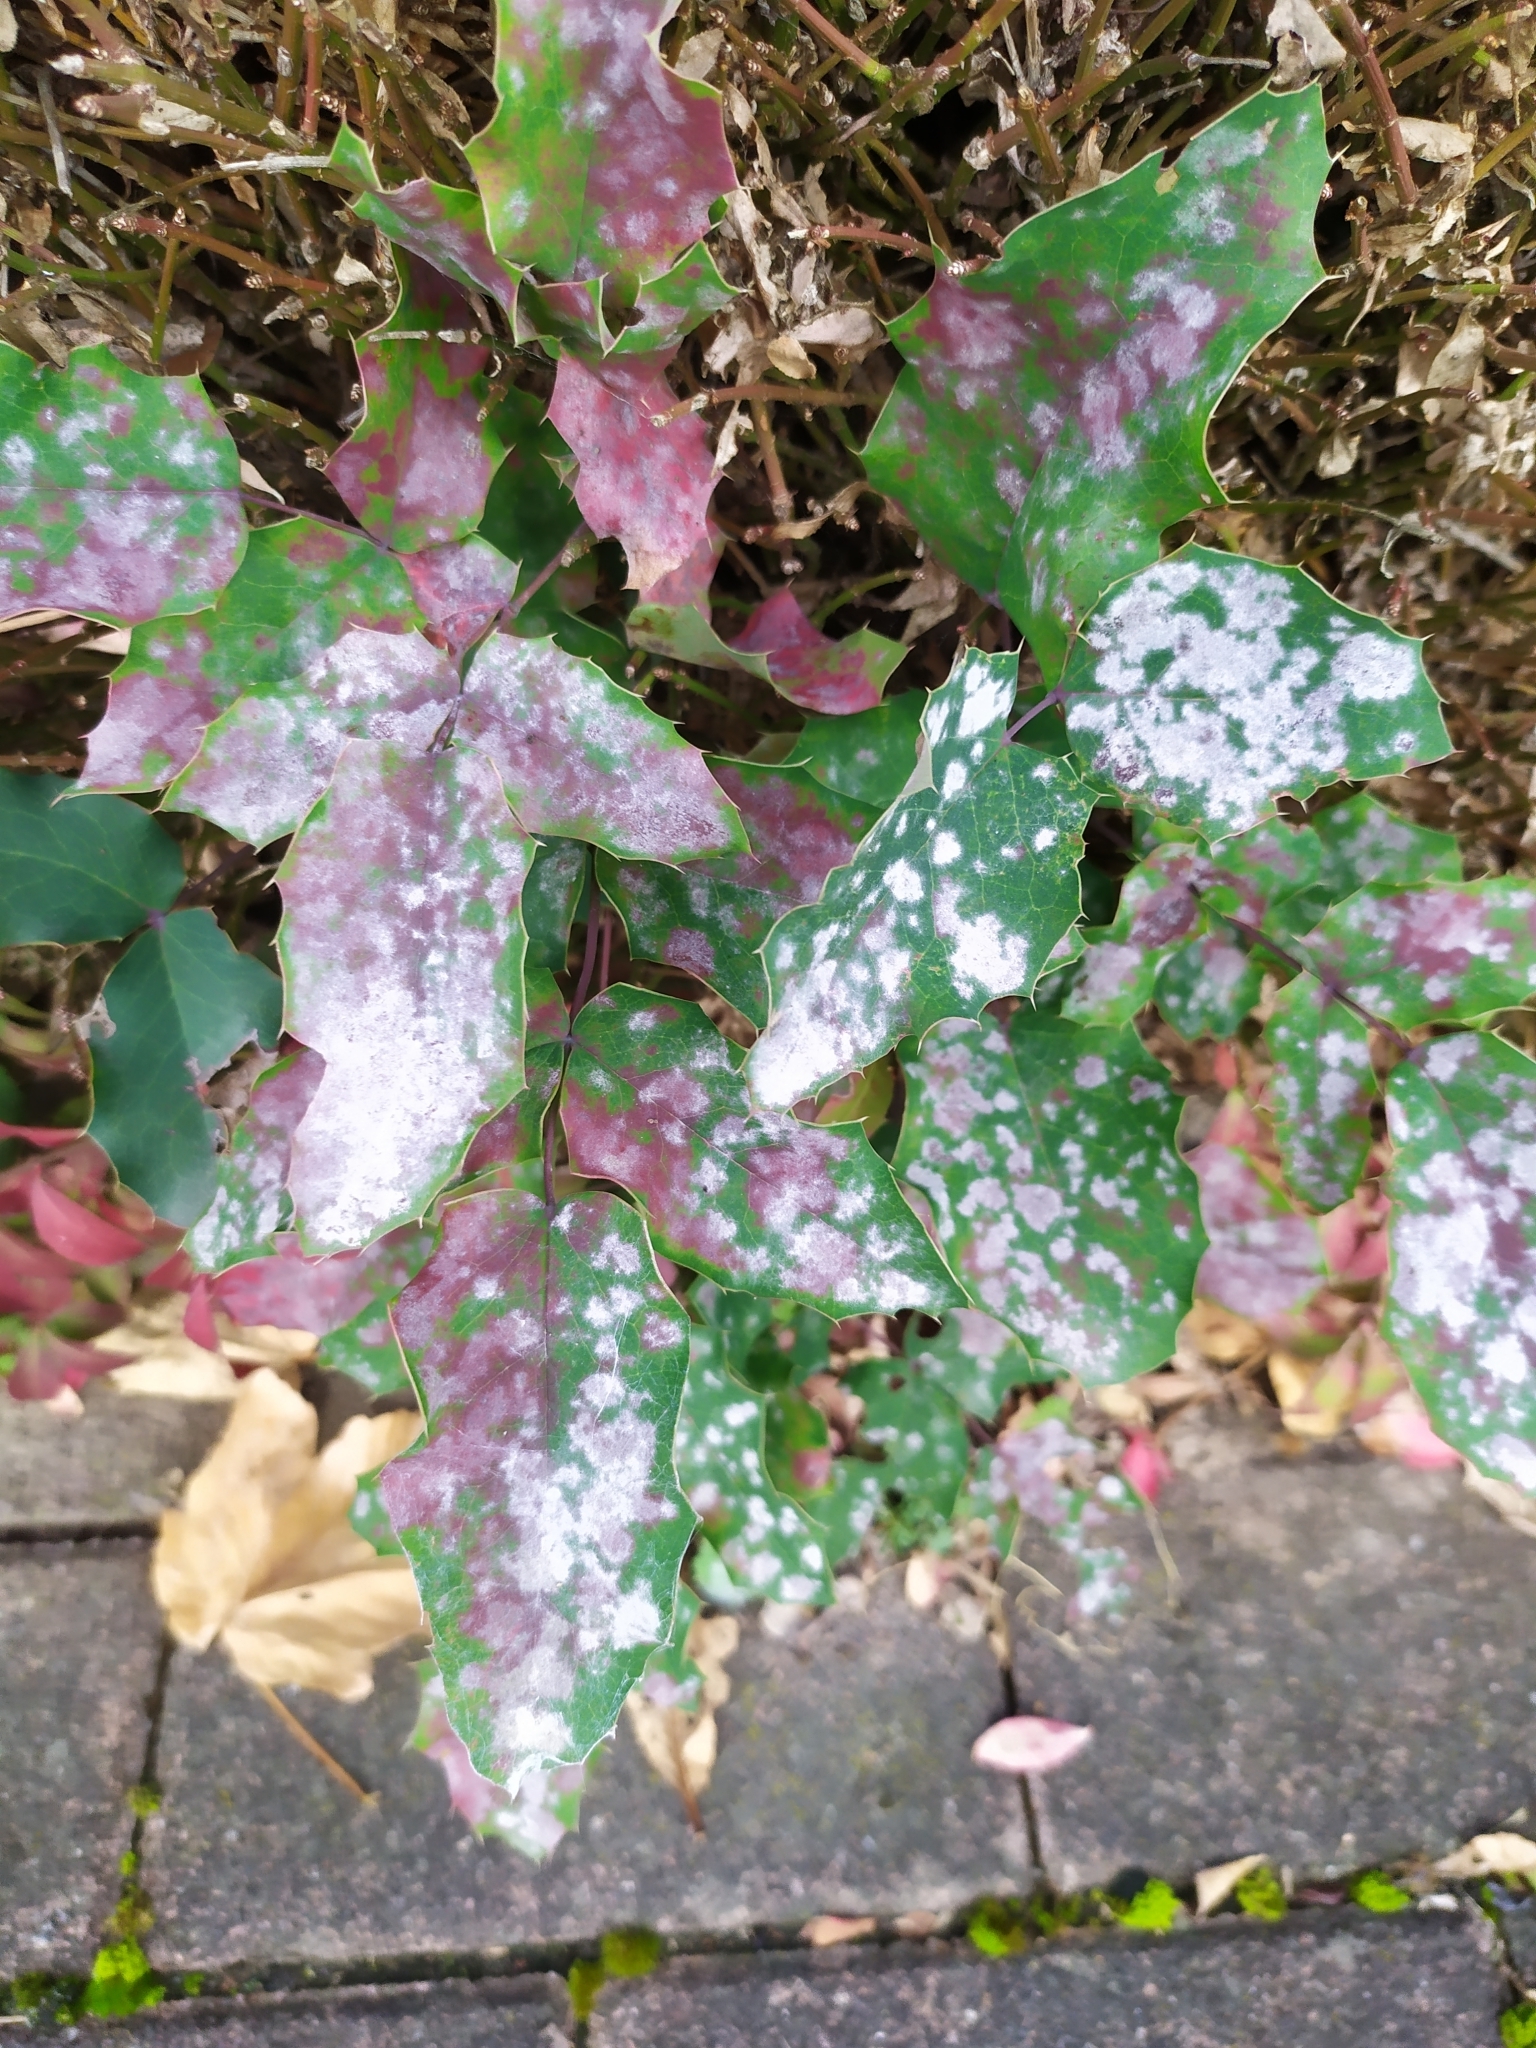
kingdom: Fungi
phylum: Ascomycota
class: Leotiomycetes
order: Helotiales
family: Erysiphaceae
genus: Erysiphe
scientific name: Erysiphe berberidis
